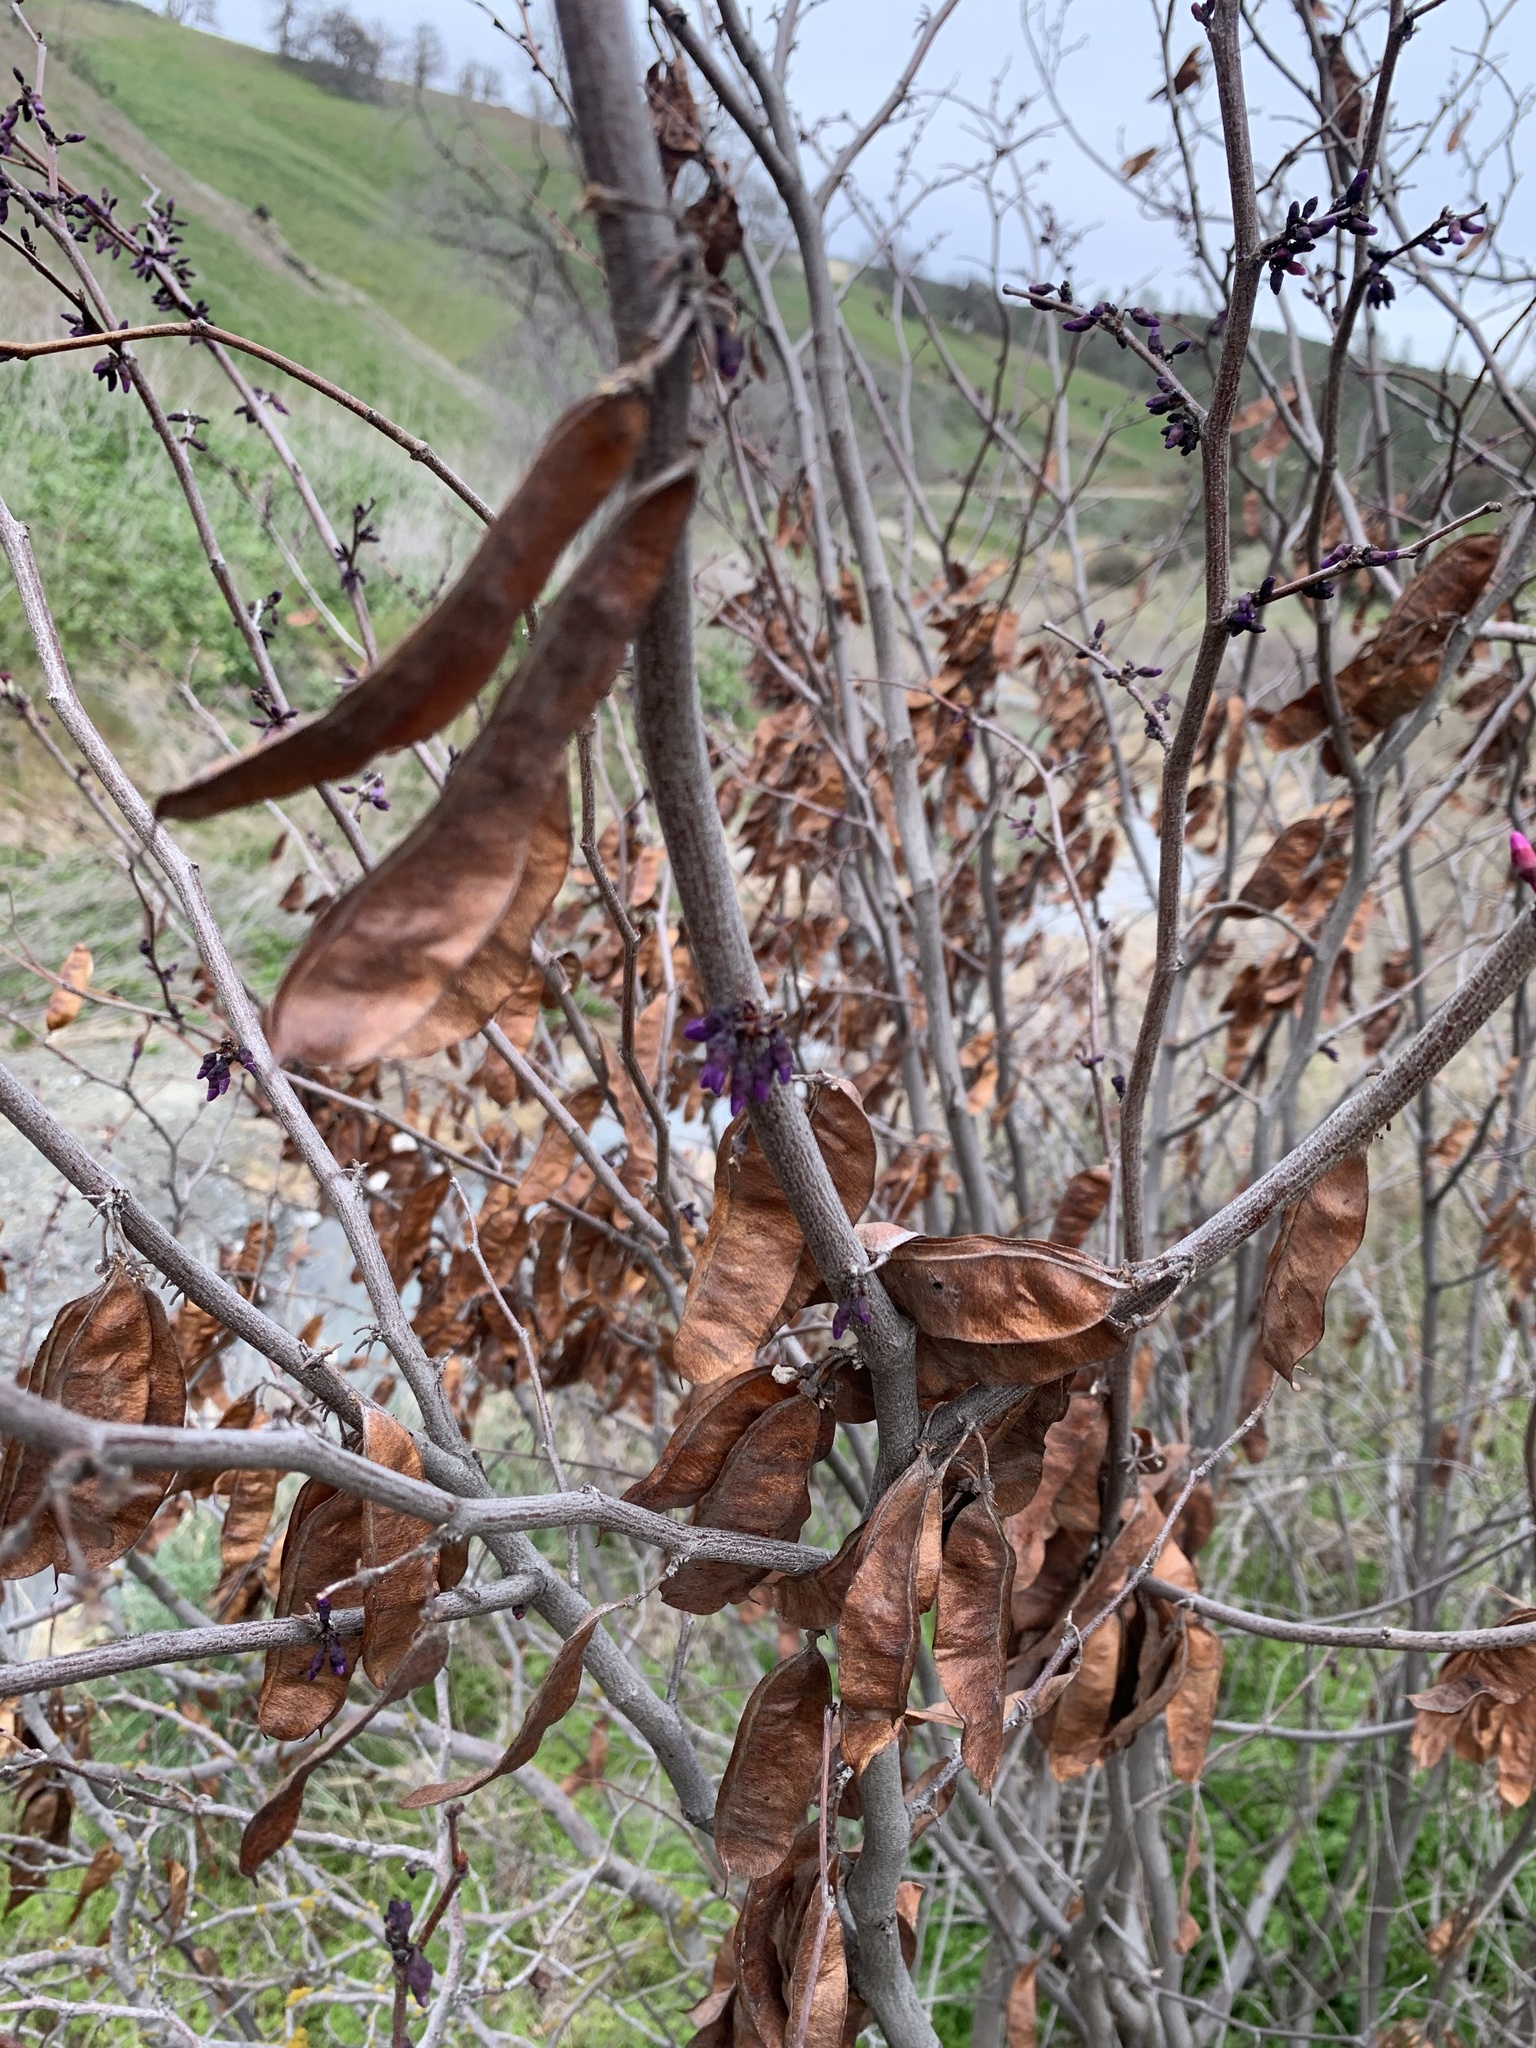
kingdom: Plantae
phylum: Tracheophyta
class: Magnoliopsida
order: Fabales
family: Fabaceae
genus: Cercis
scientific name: Cercis occidentalis
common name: California redbud
